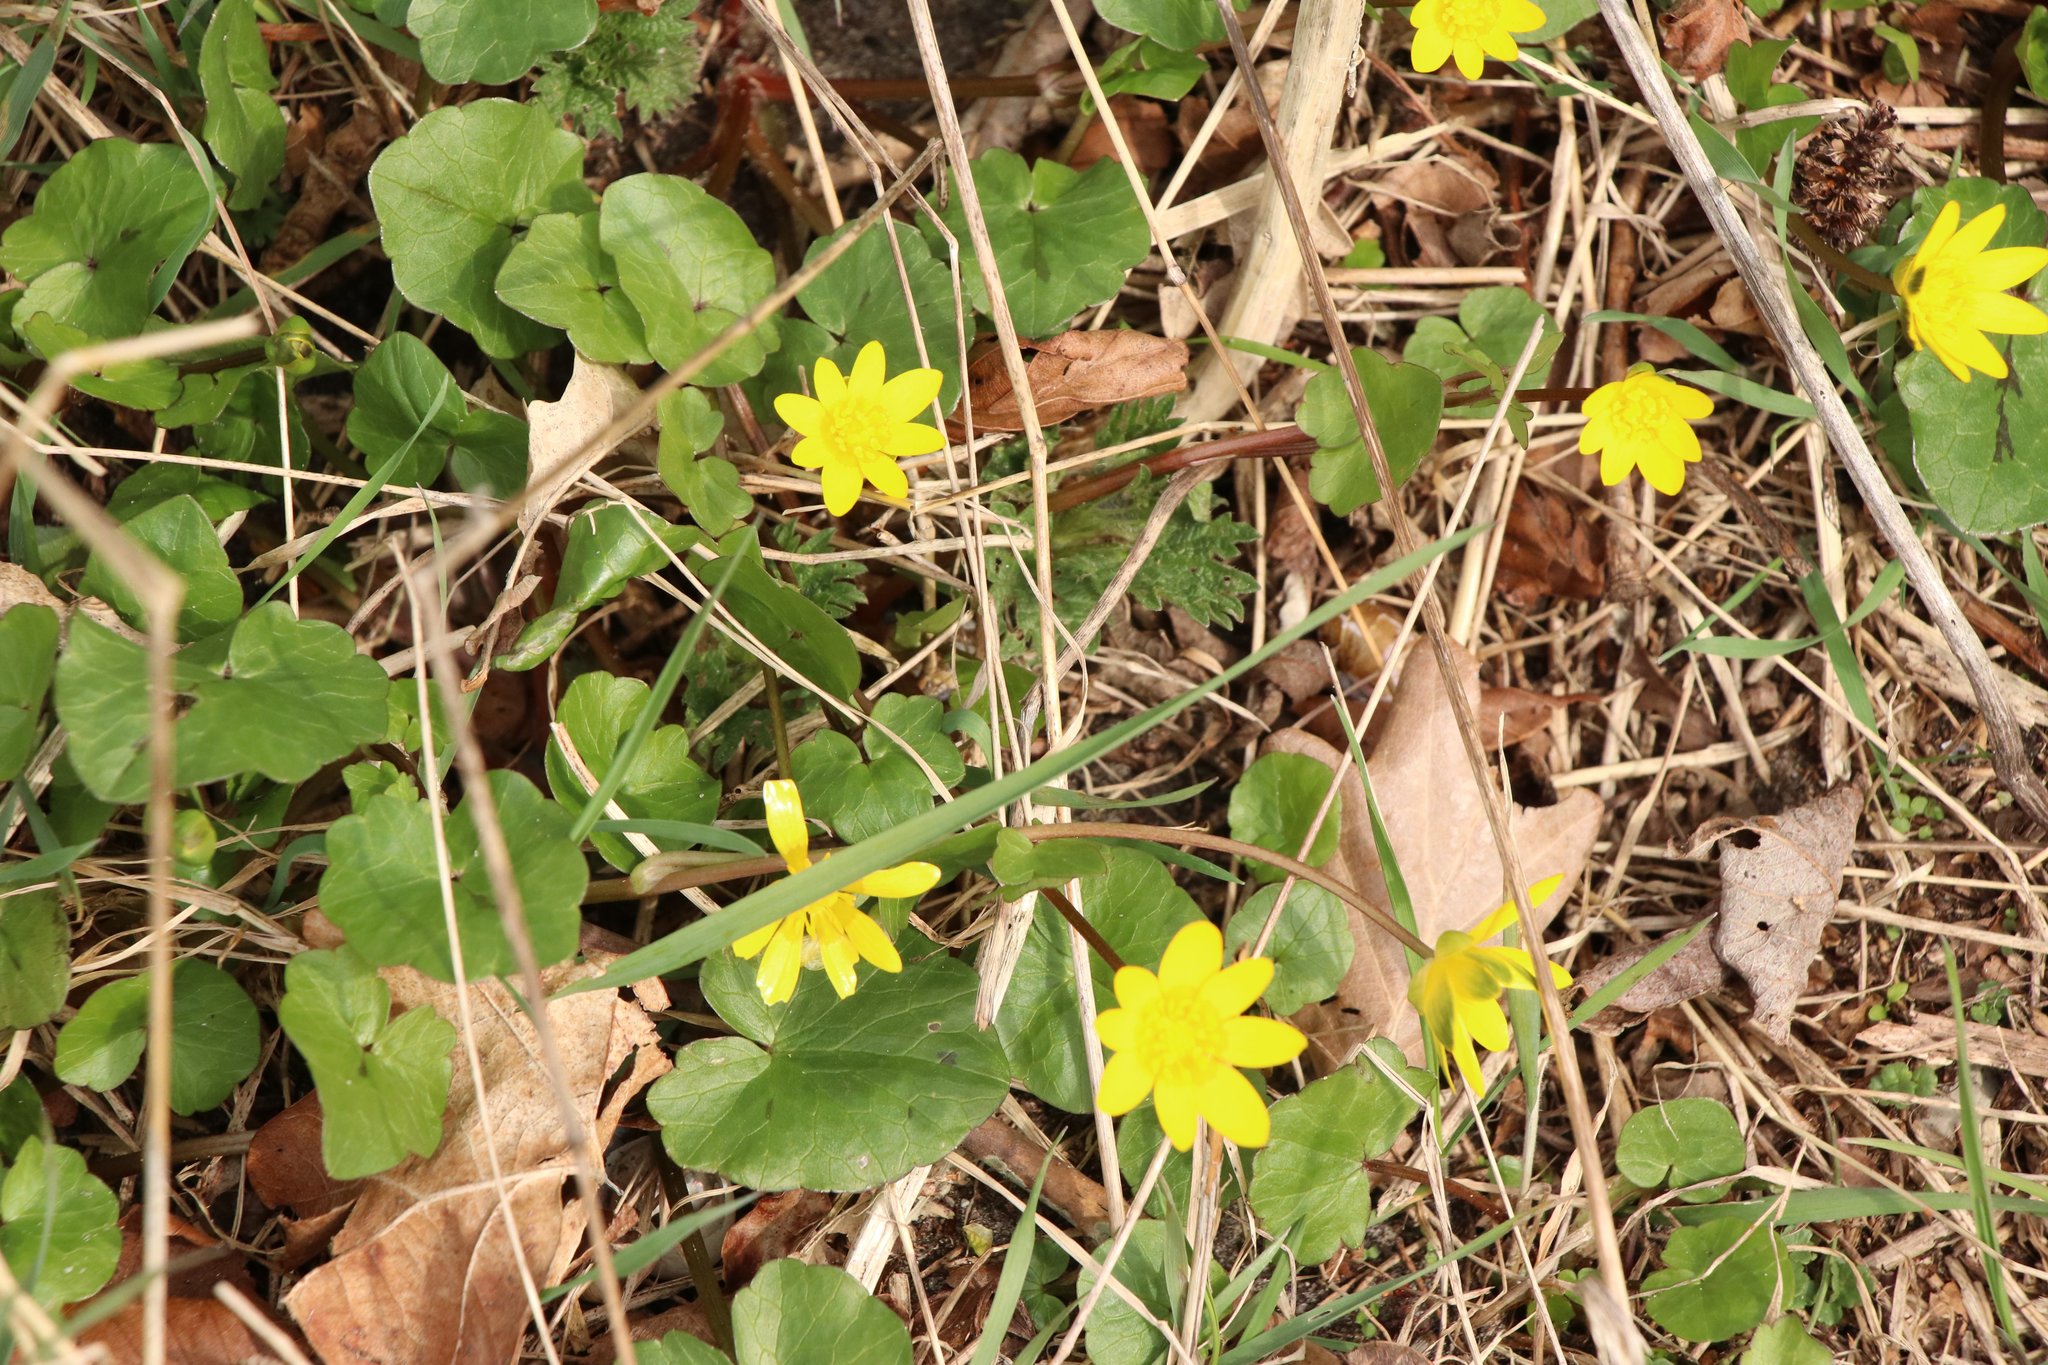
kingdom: Plantae
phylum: Tracheophyta
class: Magnoliopsida
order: Ranunculales
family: Ranunculaceae
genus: Ficaria
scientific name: Ficaria verna
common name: Lesser celandine
